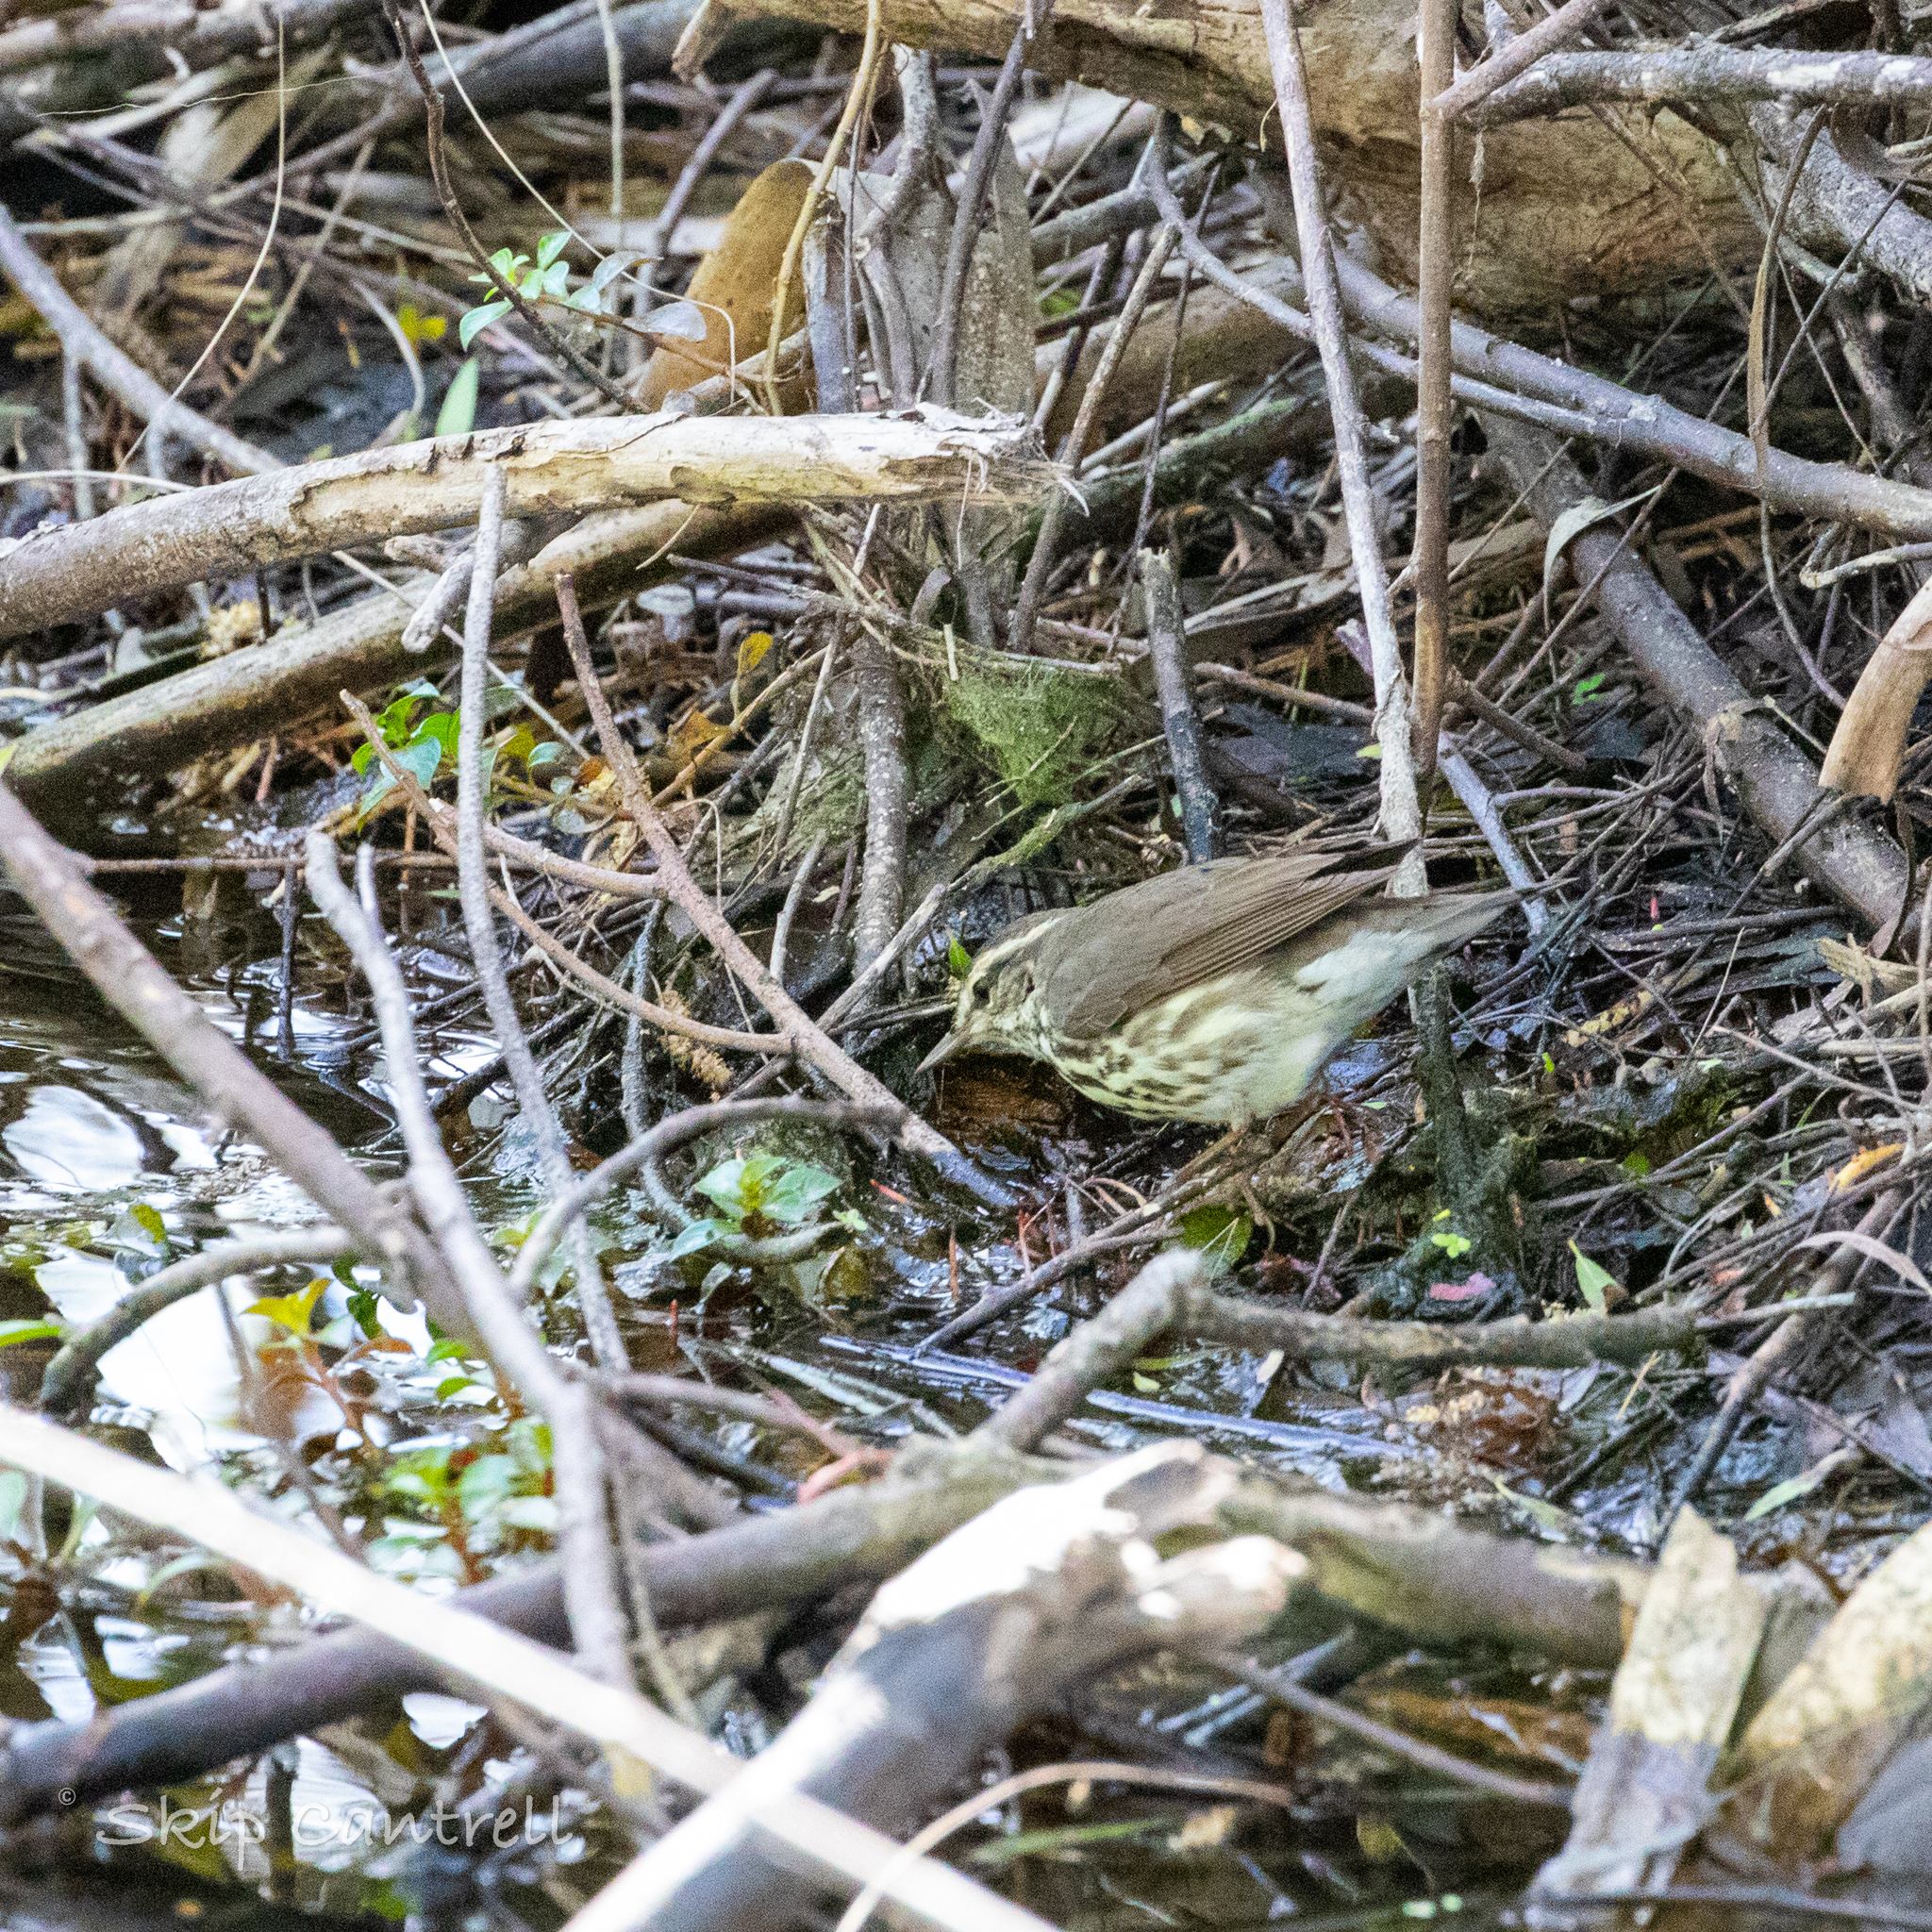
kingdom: Animalia
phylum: Chordata
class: Aves
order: Passeriformes
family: Parulidae
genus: Parkesia
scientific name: Parkesia noveboracensis
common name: Northern waterthrush
